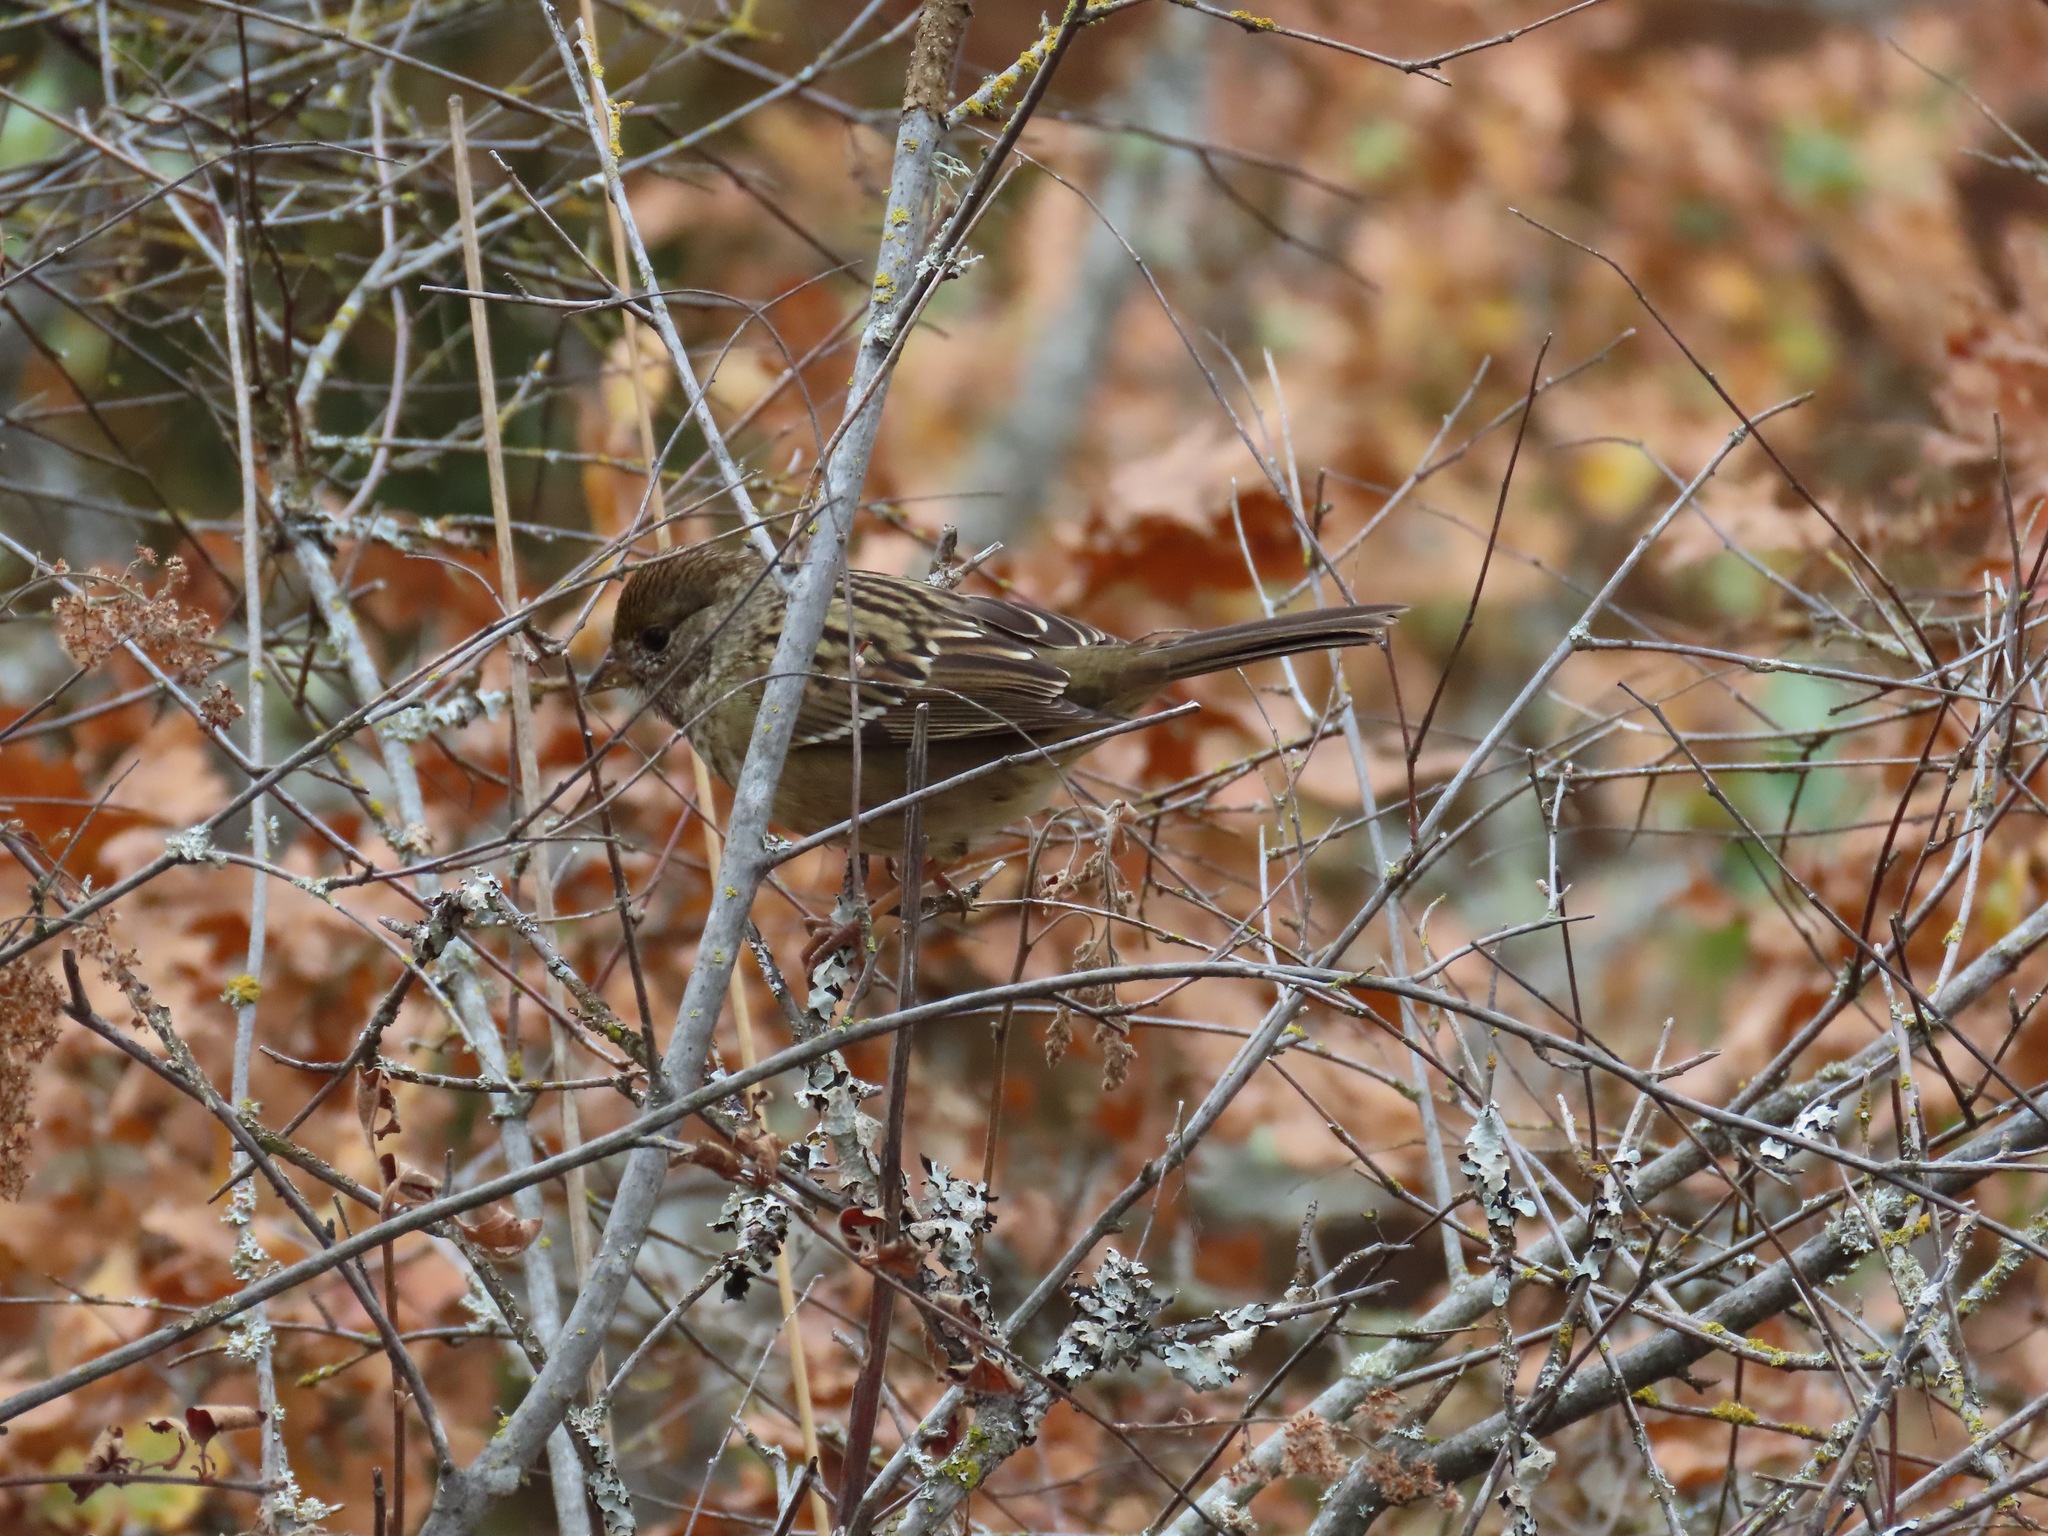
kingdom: Animalia
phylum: Chordata
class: Aves
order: Passeriformes
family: Passerellidae
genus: Zonotrichia
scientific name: Zonotrichia atricapilla
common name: Golden-crowned sparrow
